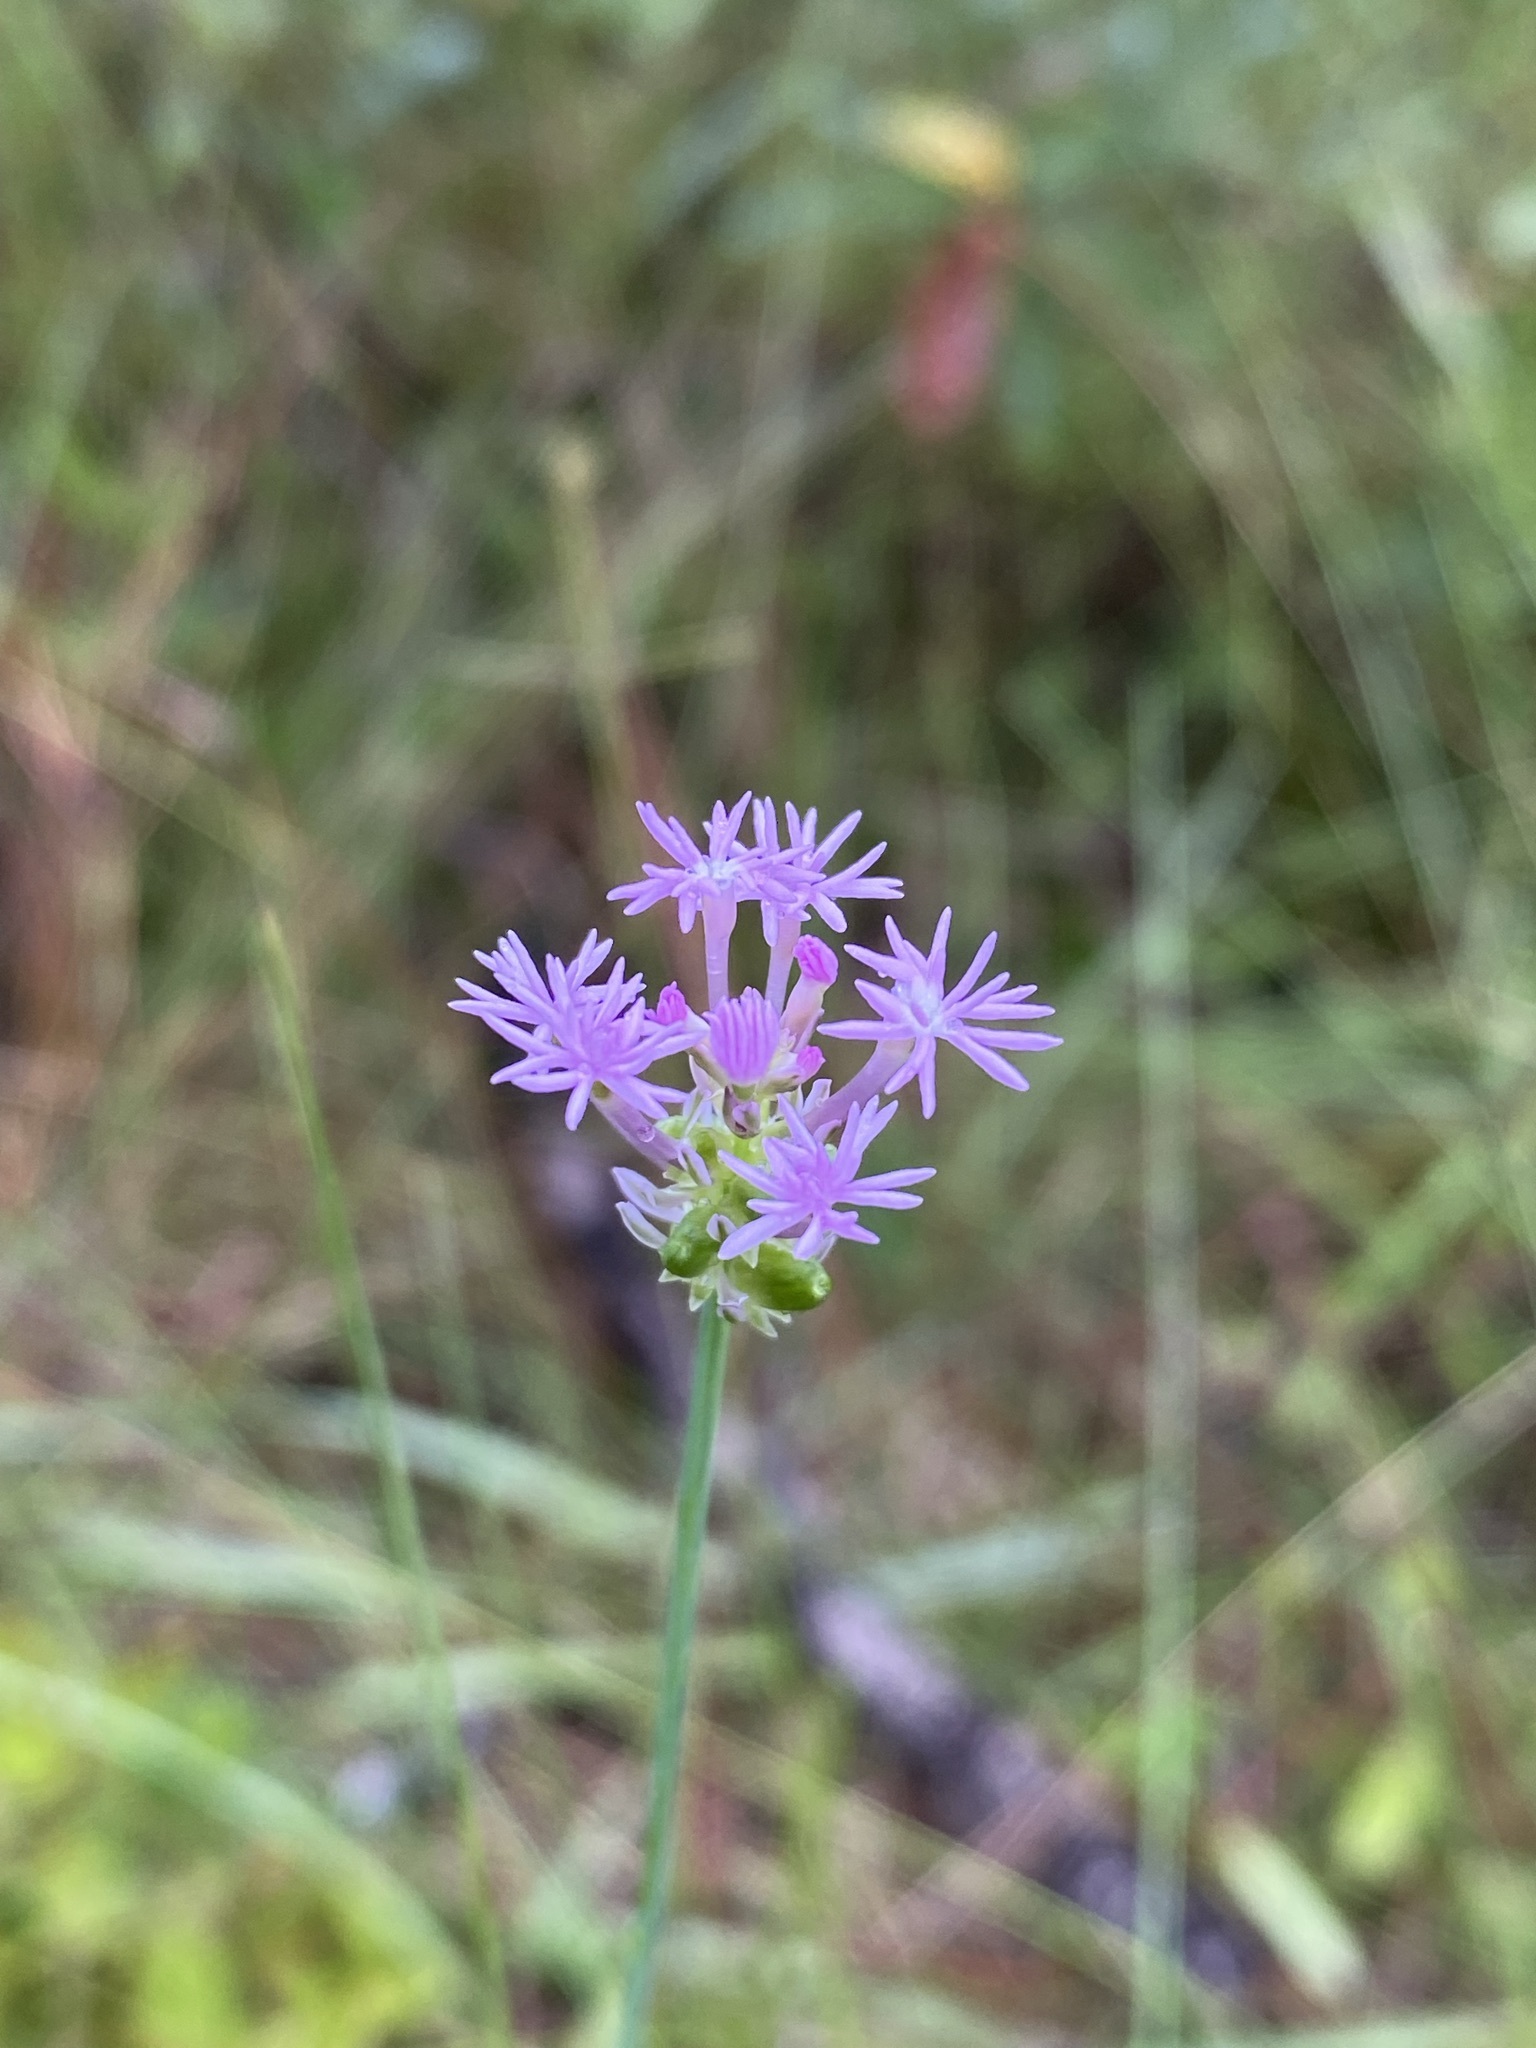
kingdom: Plantae
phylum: Tracheophyta
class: Magnoliopsida
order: Fabales
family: Polygalaceae
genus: Polygala
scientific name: Polygala incarnata
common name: Pink milkwort
